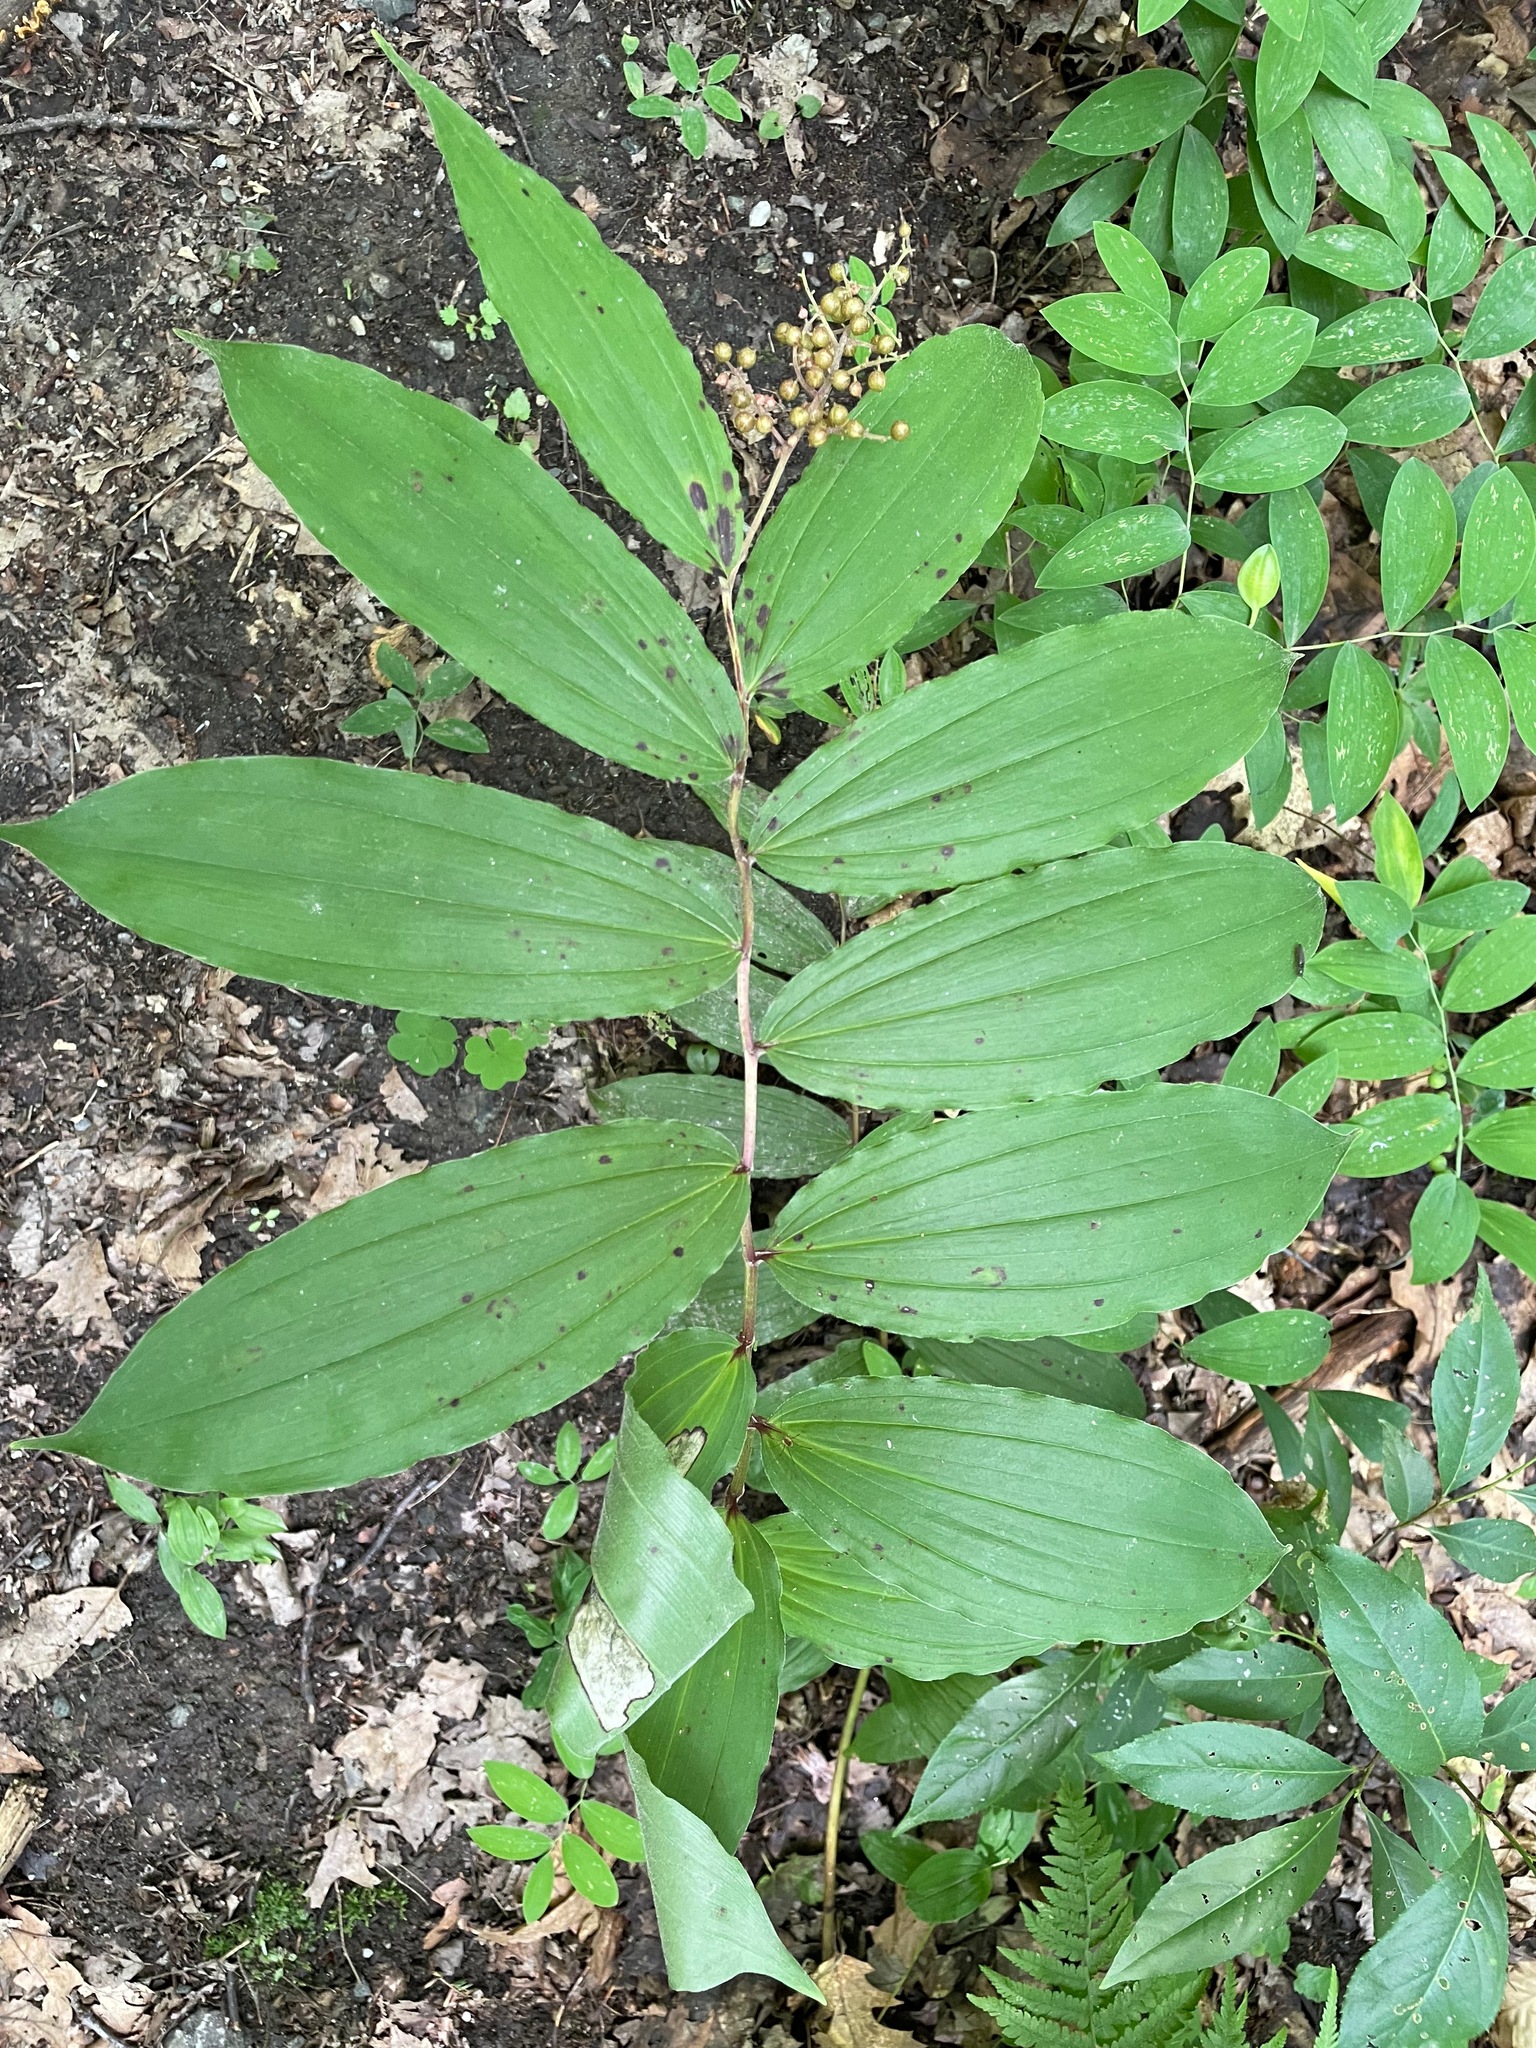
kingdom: Plantae
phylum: Tracheophyta
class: Liliopsida
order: Asparagales
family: Asparagaceae
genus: Maianthemum
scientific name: Maianthemum racemosum
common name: False spikenard
